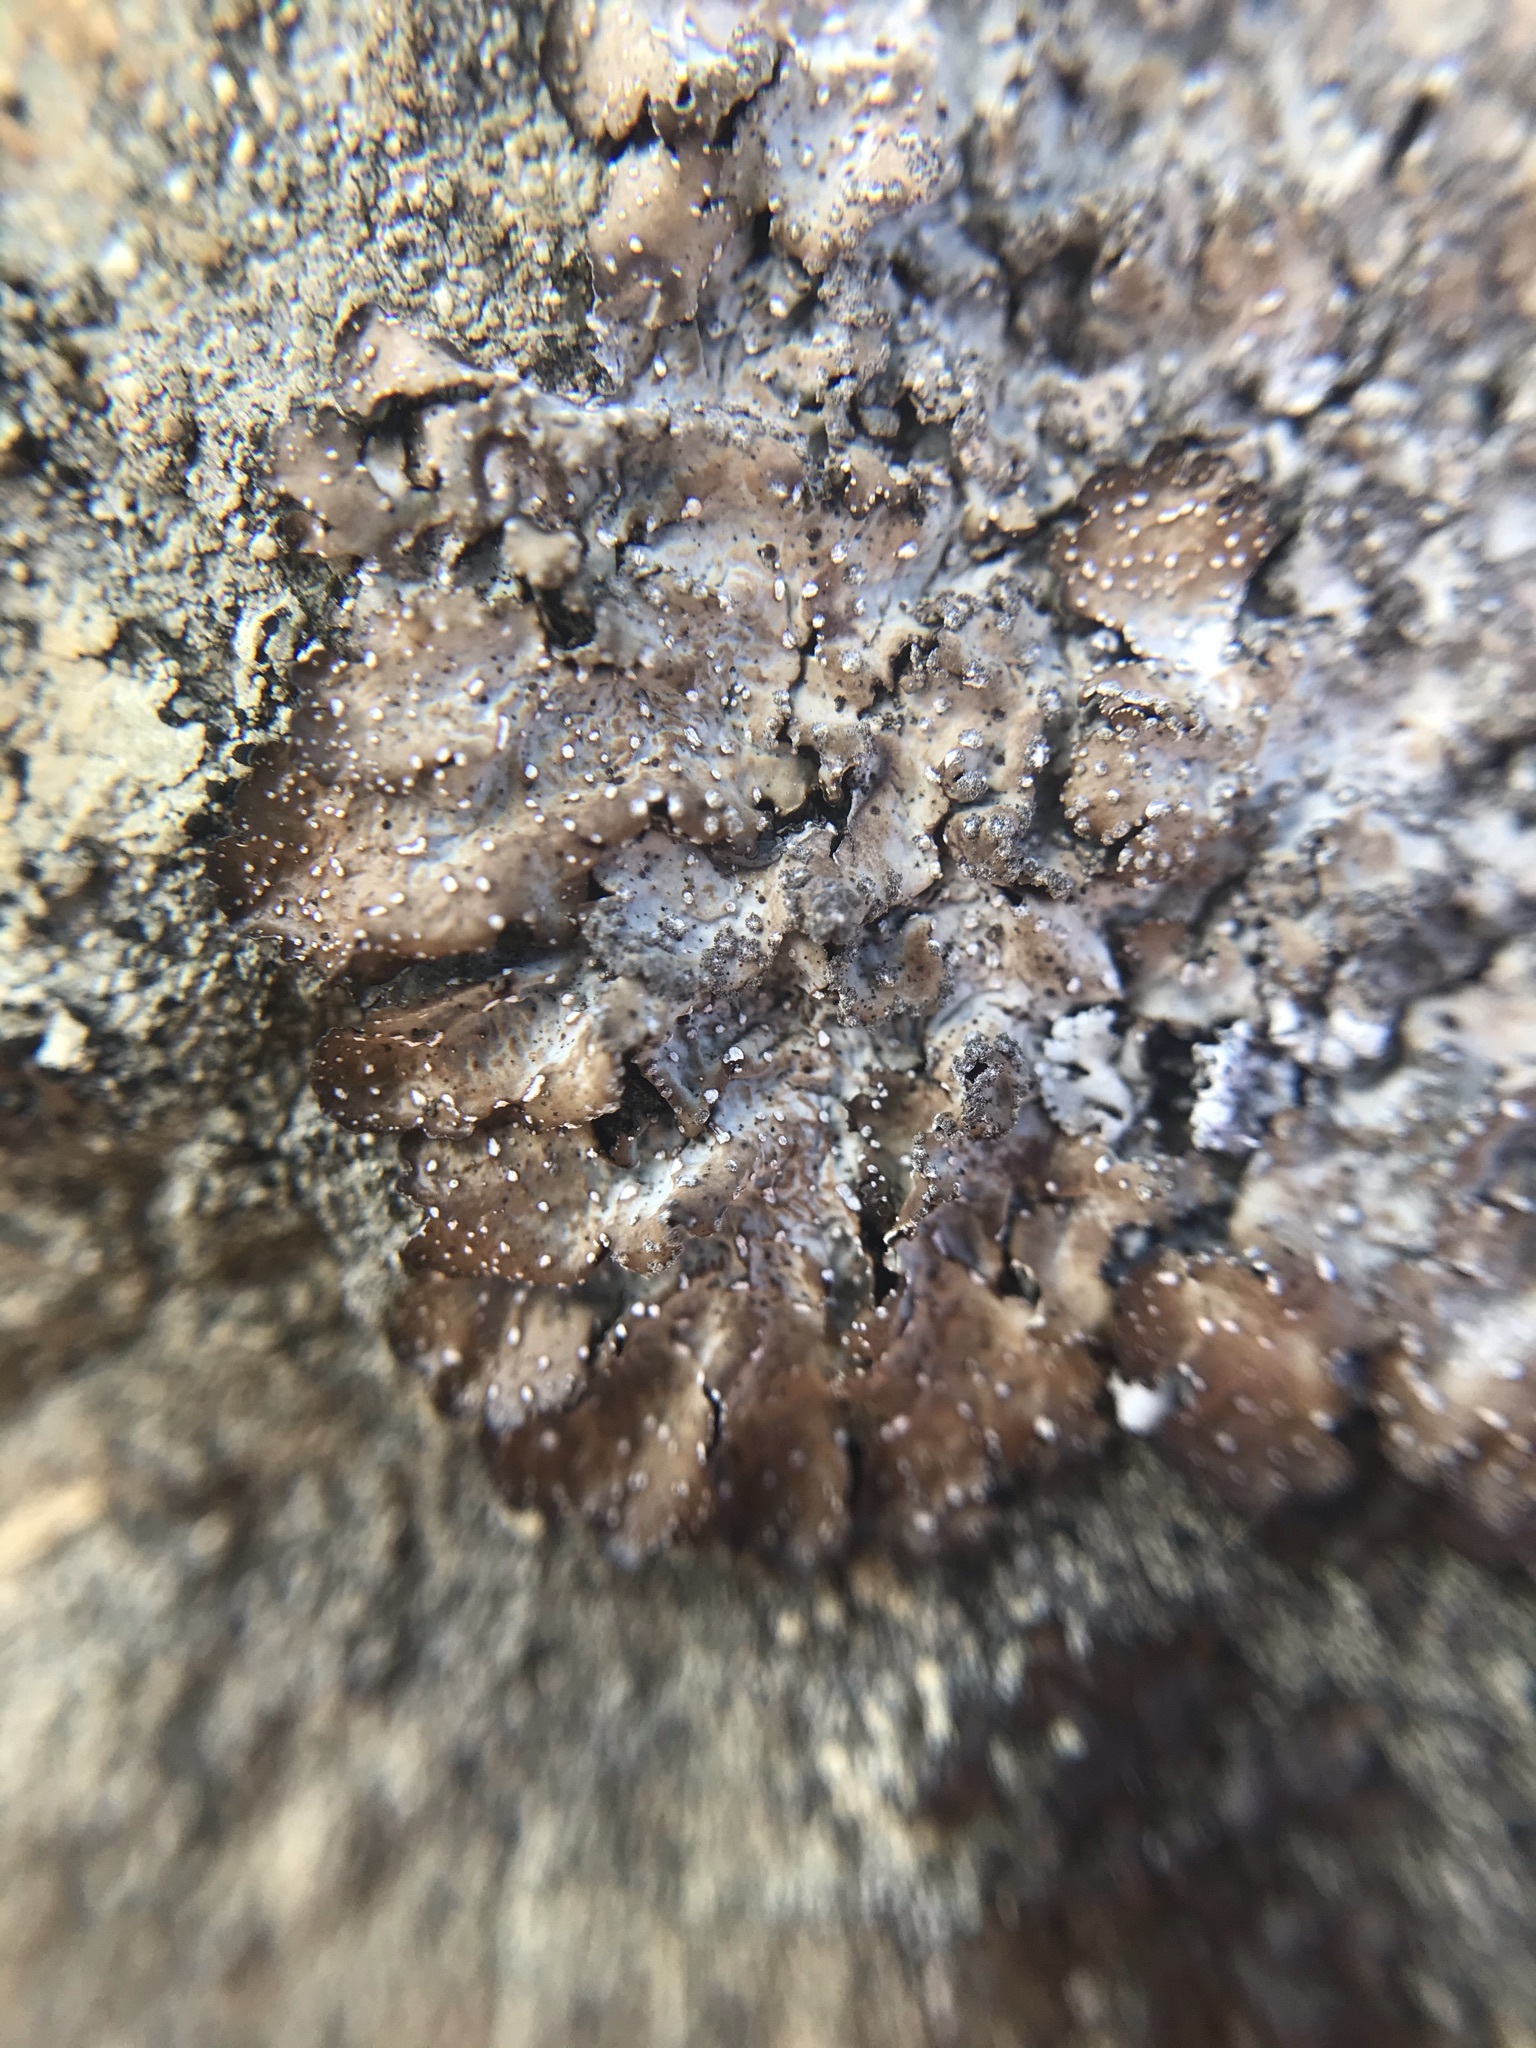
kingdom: Fungi
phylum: Ascomycota
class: Lecanoromycetes
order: Lecanorales
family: Parmeliaceae
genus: Punctelia
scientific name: Punctelia stictica
